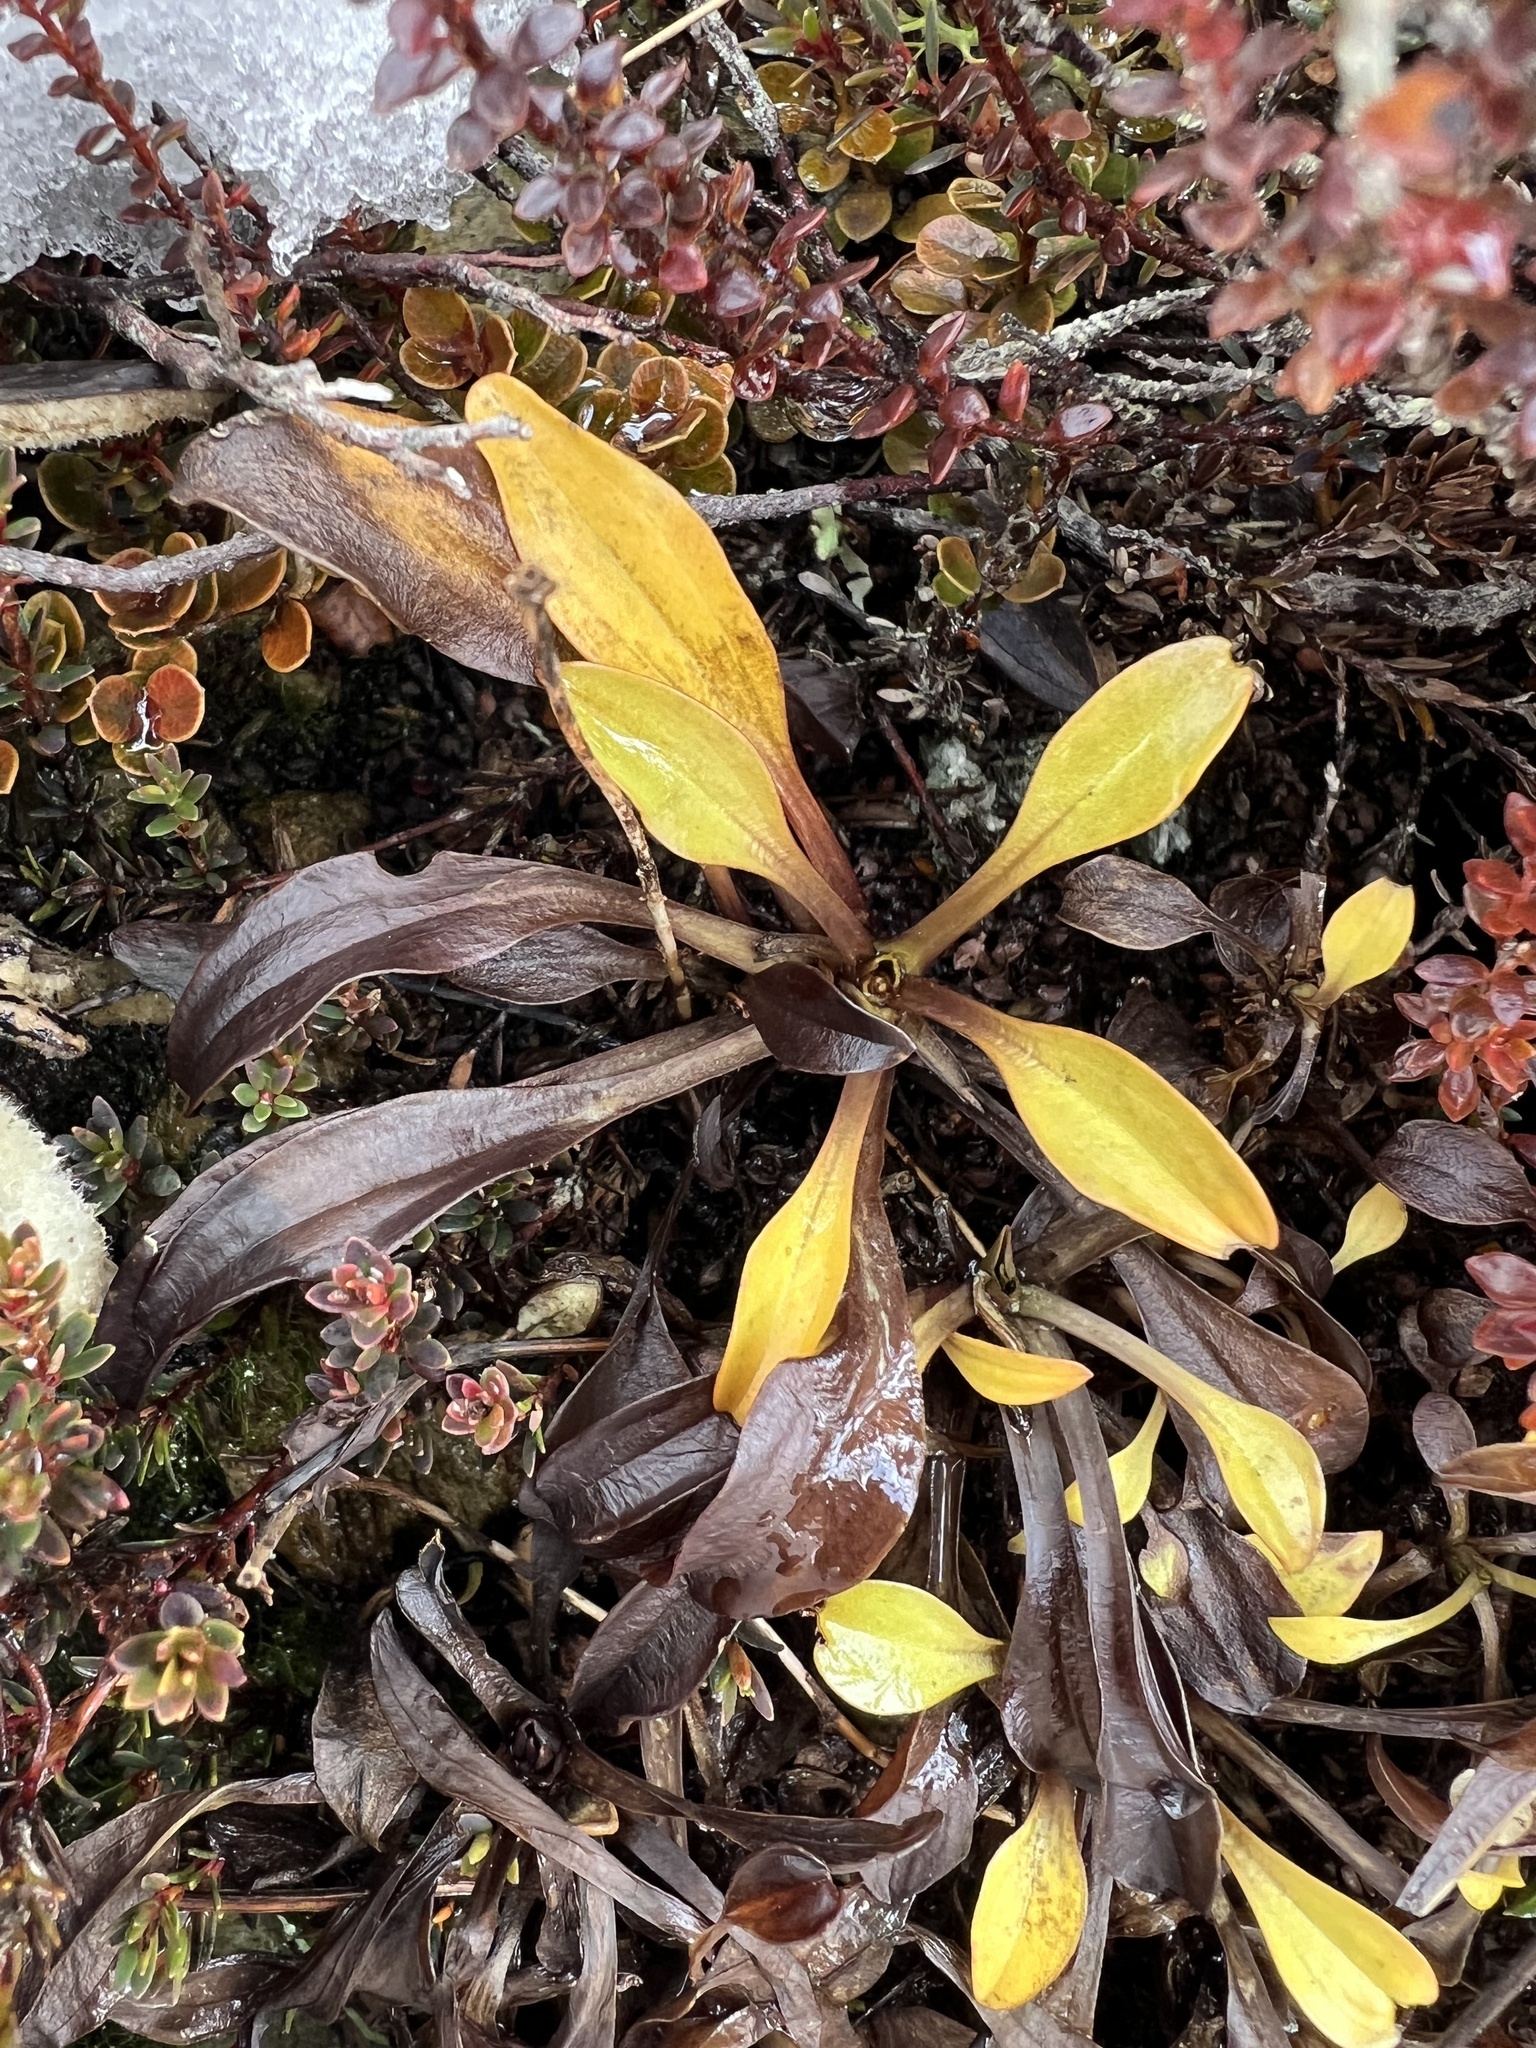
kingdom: Plantae
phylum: Tracheophyta
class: Magnoliopsida
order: Gentianales
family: Gentianaceae
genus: Gentianella
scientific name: Gentianella bellidifolia
